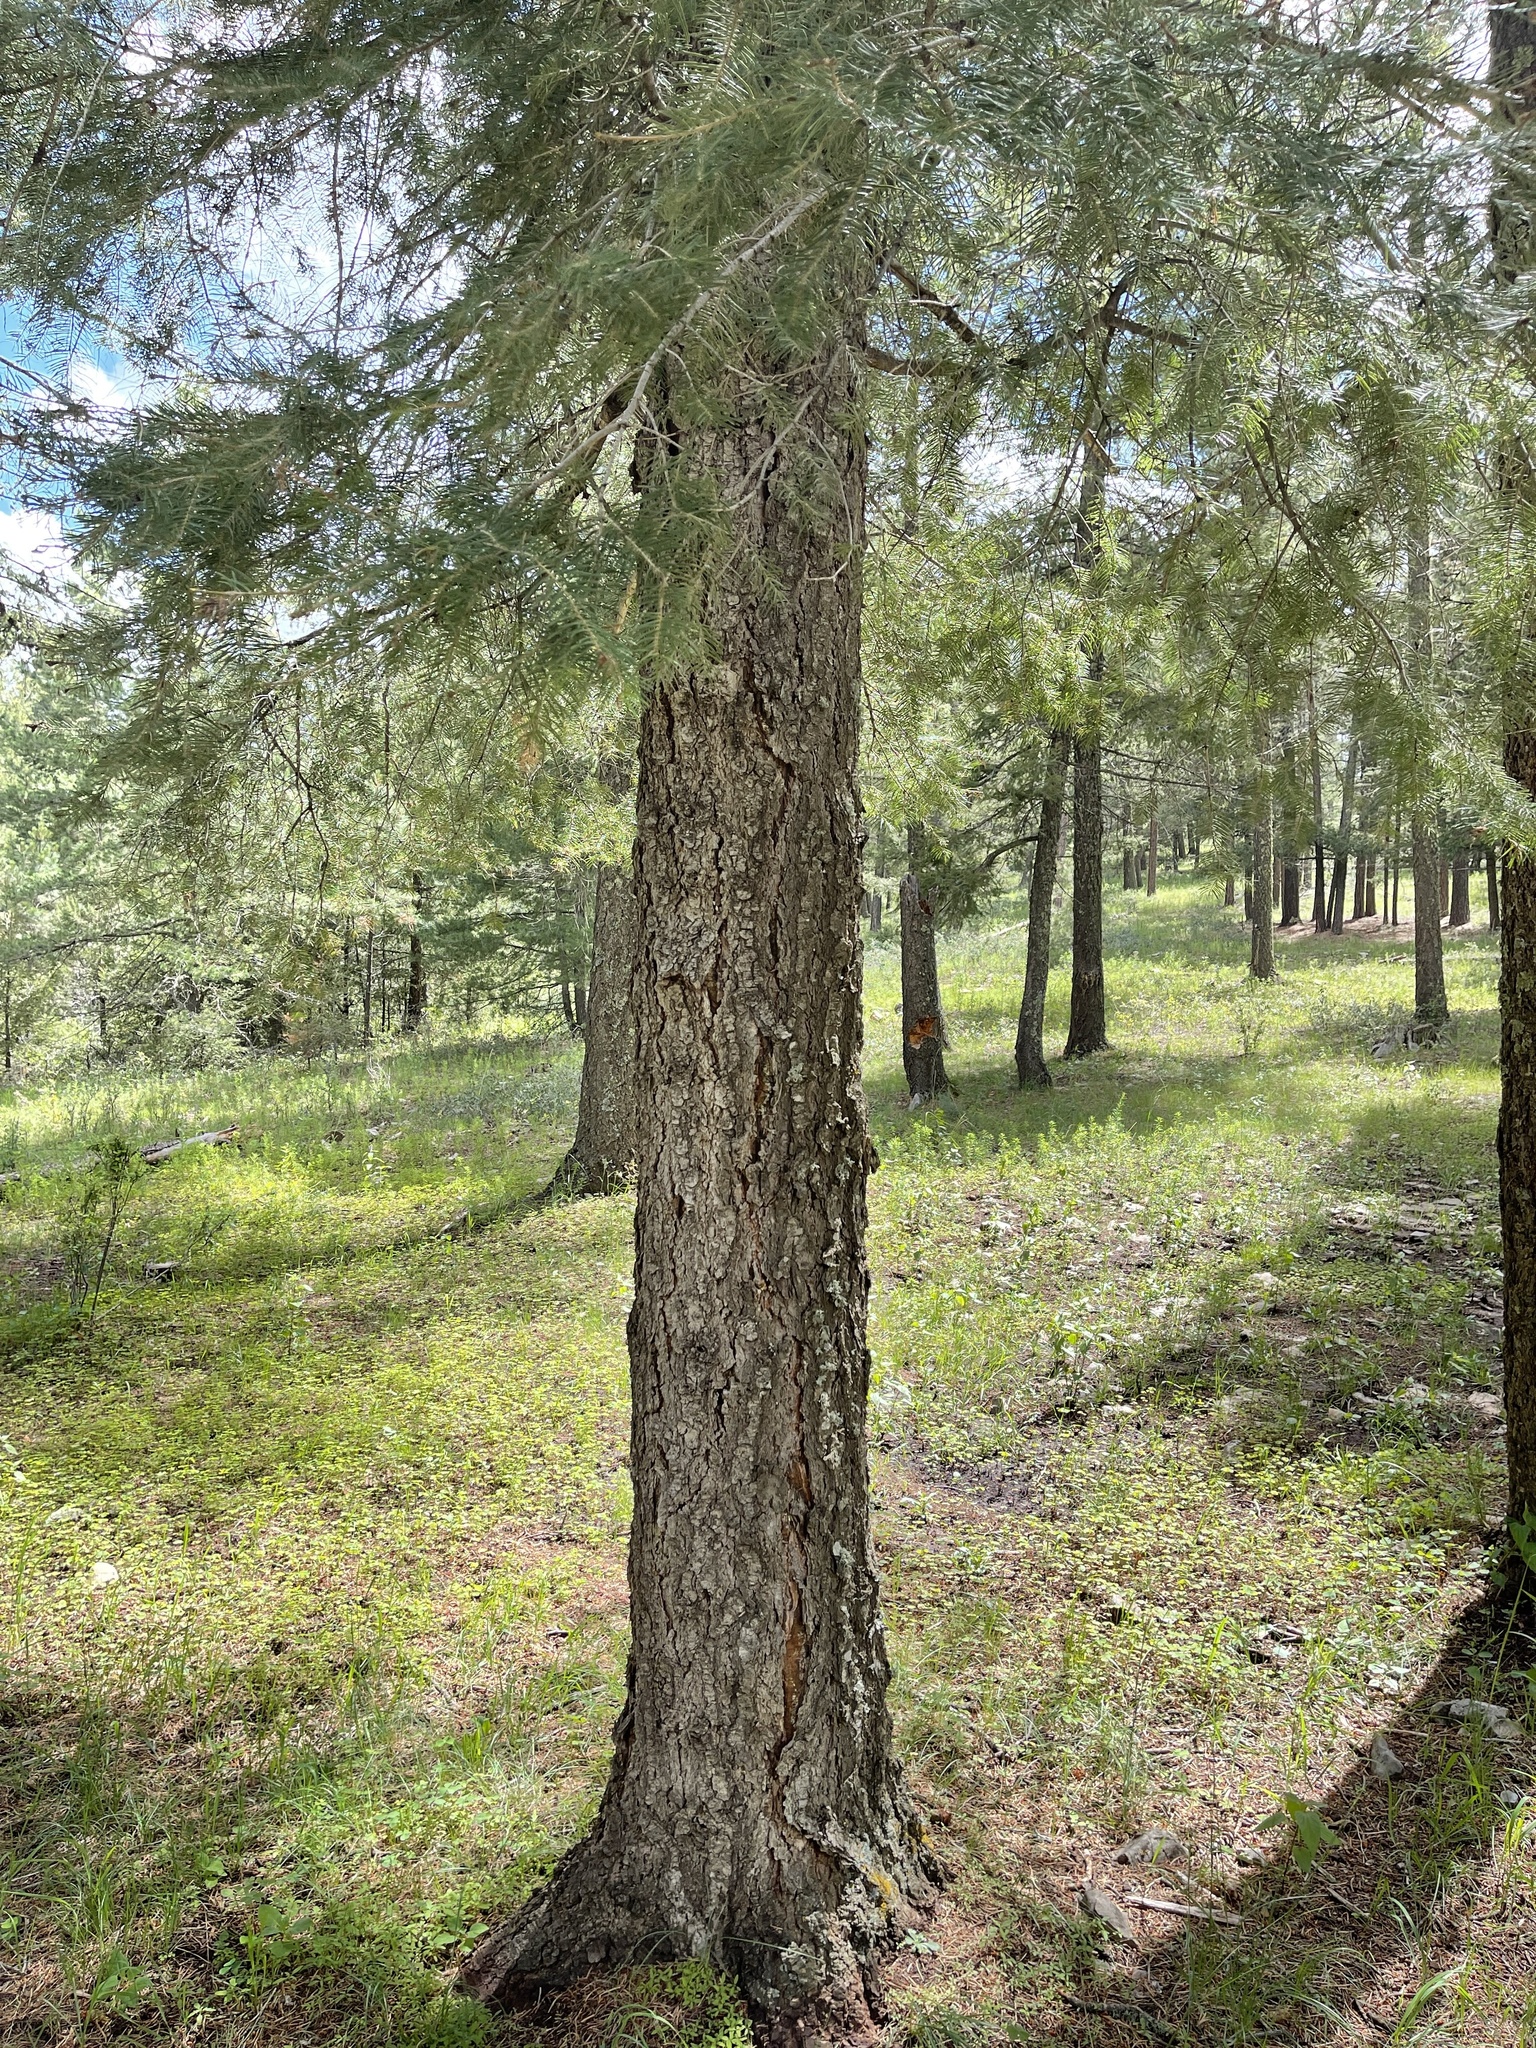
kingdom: Plantae
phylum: Tracheophyta
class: Pinopsida
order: Pinales
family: Pinaceae
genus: Abies
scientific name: Abies concolor
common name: Colorado fir
